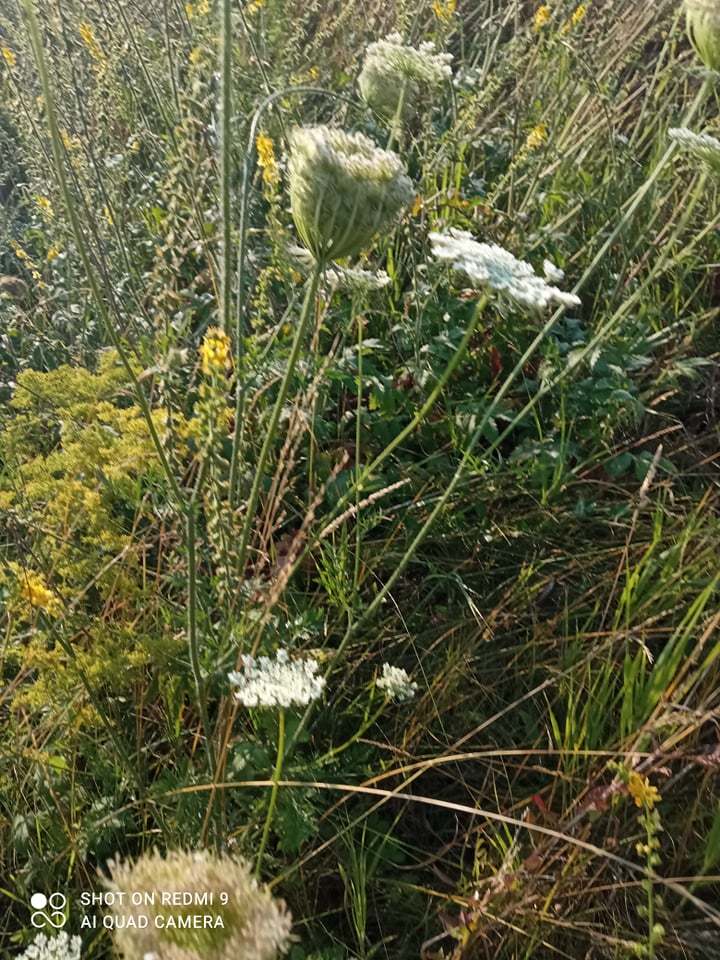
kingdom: Plantae
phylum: Tracheophyta
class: Magnoliopsida
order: Apiales
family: Apiaceae
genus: Daucus
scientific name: Daucus carota
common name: Wild carrot
